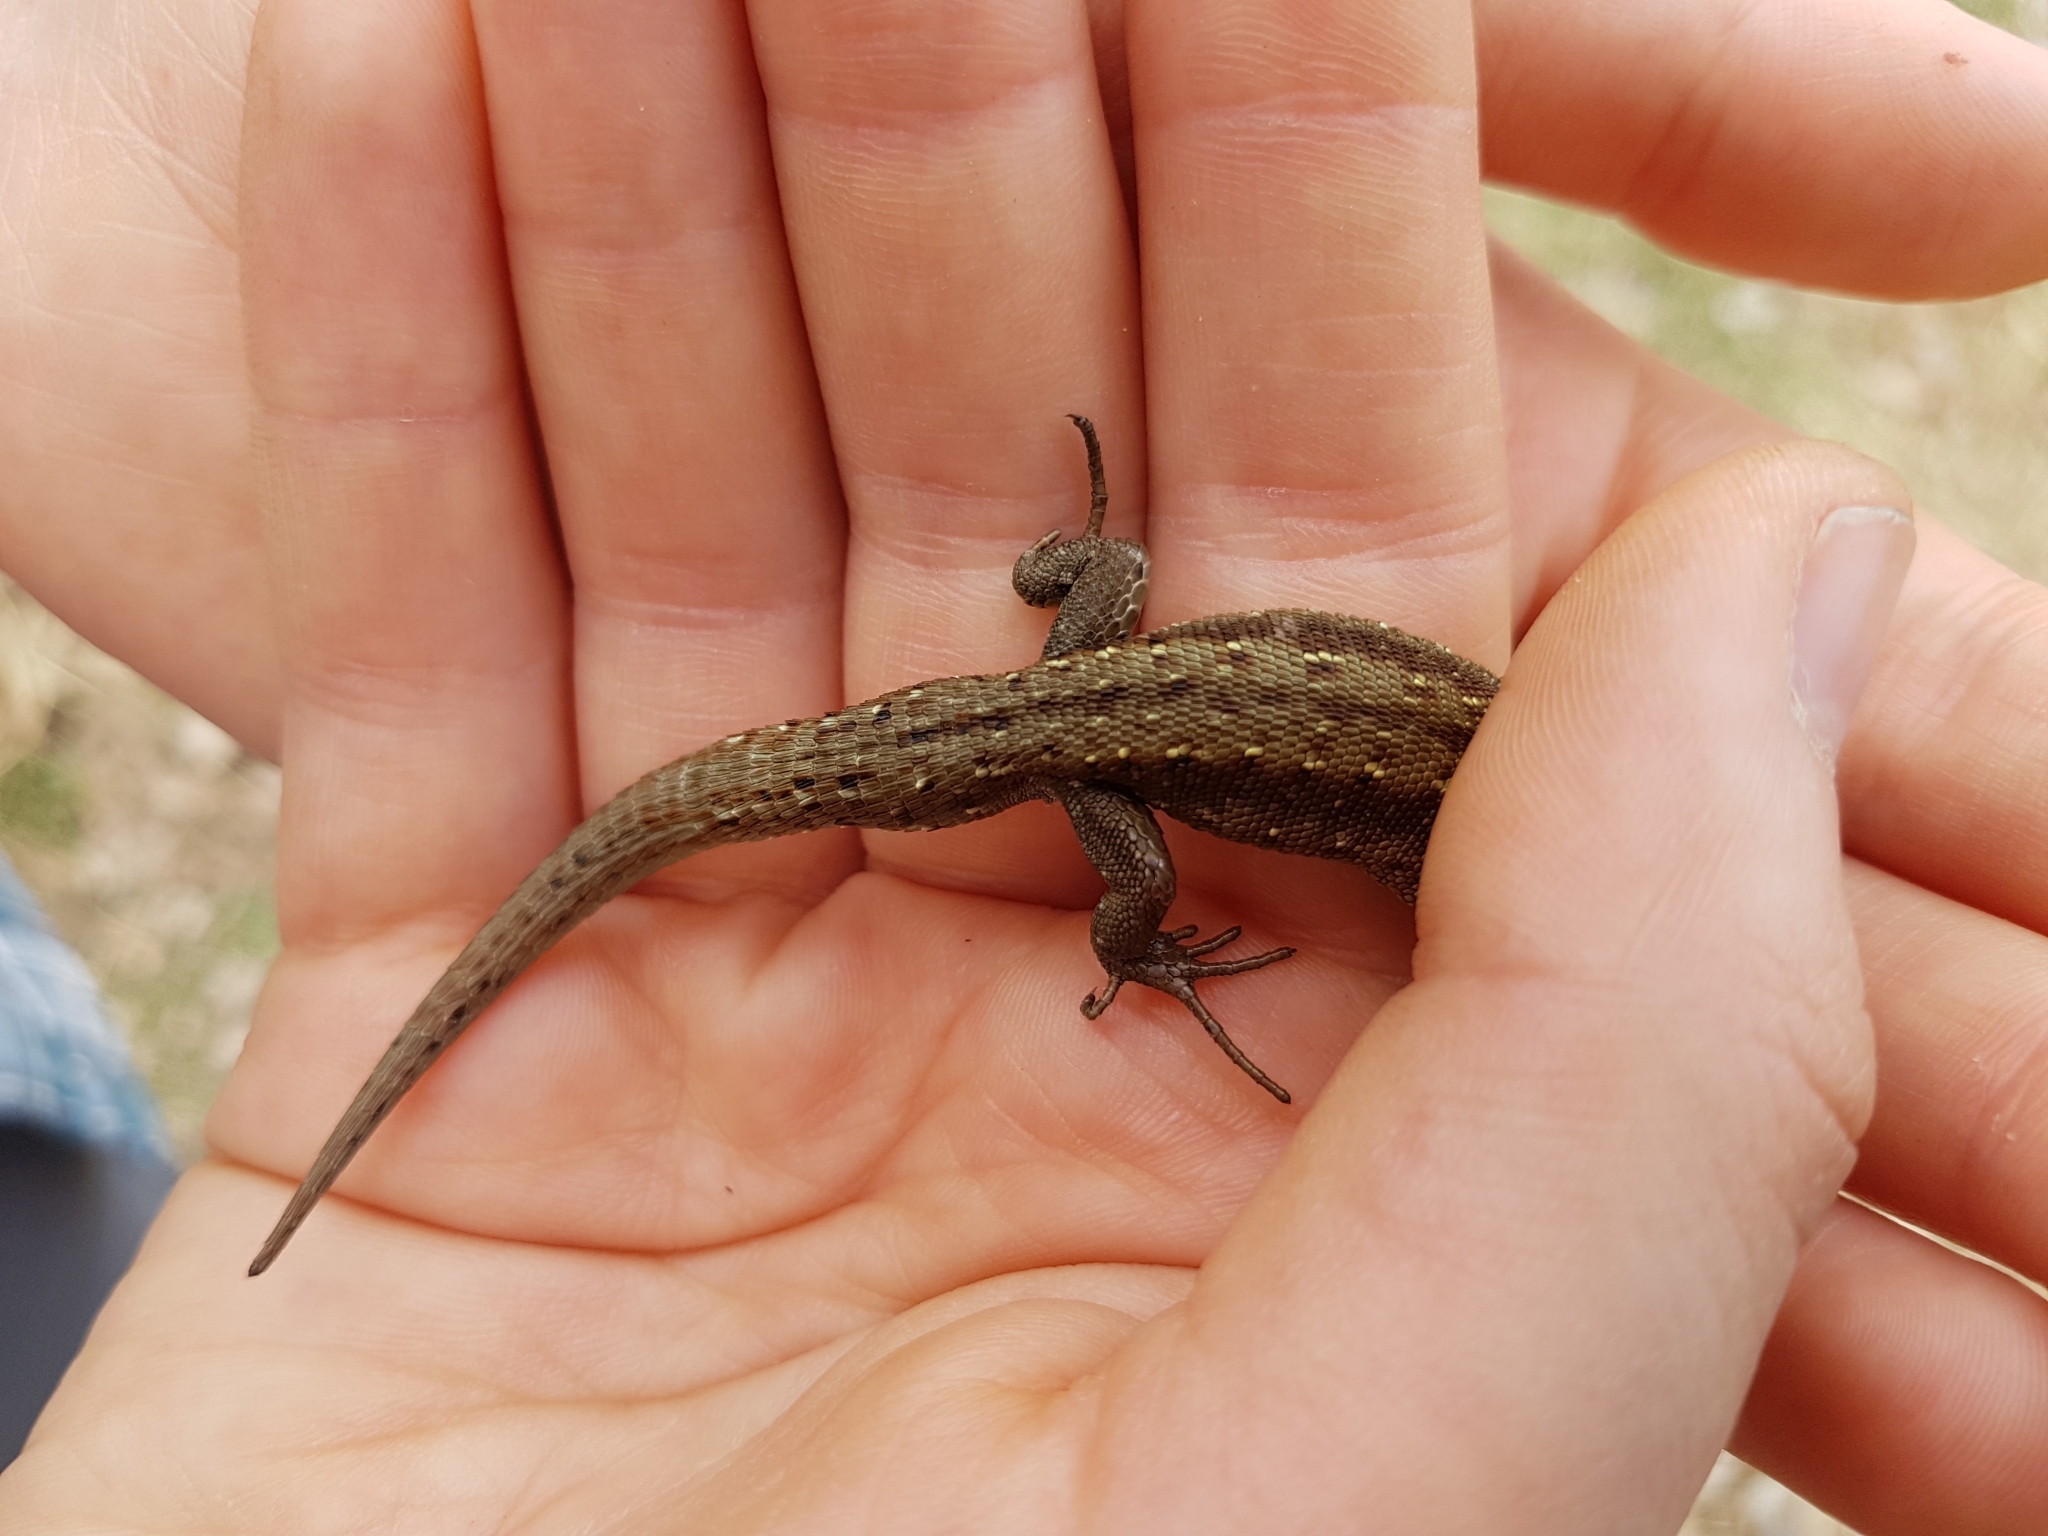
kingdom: Animalia
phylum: Chordata
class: Squamata
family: Lacertidae
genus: Zootoca
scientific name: Zootoca vivipara
